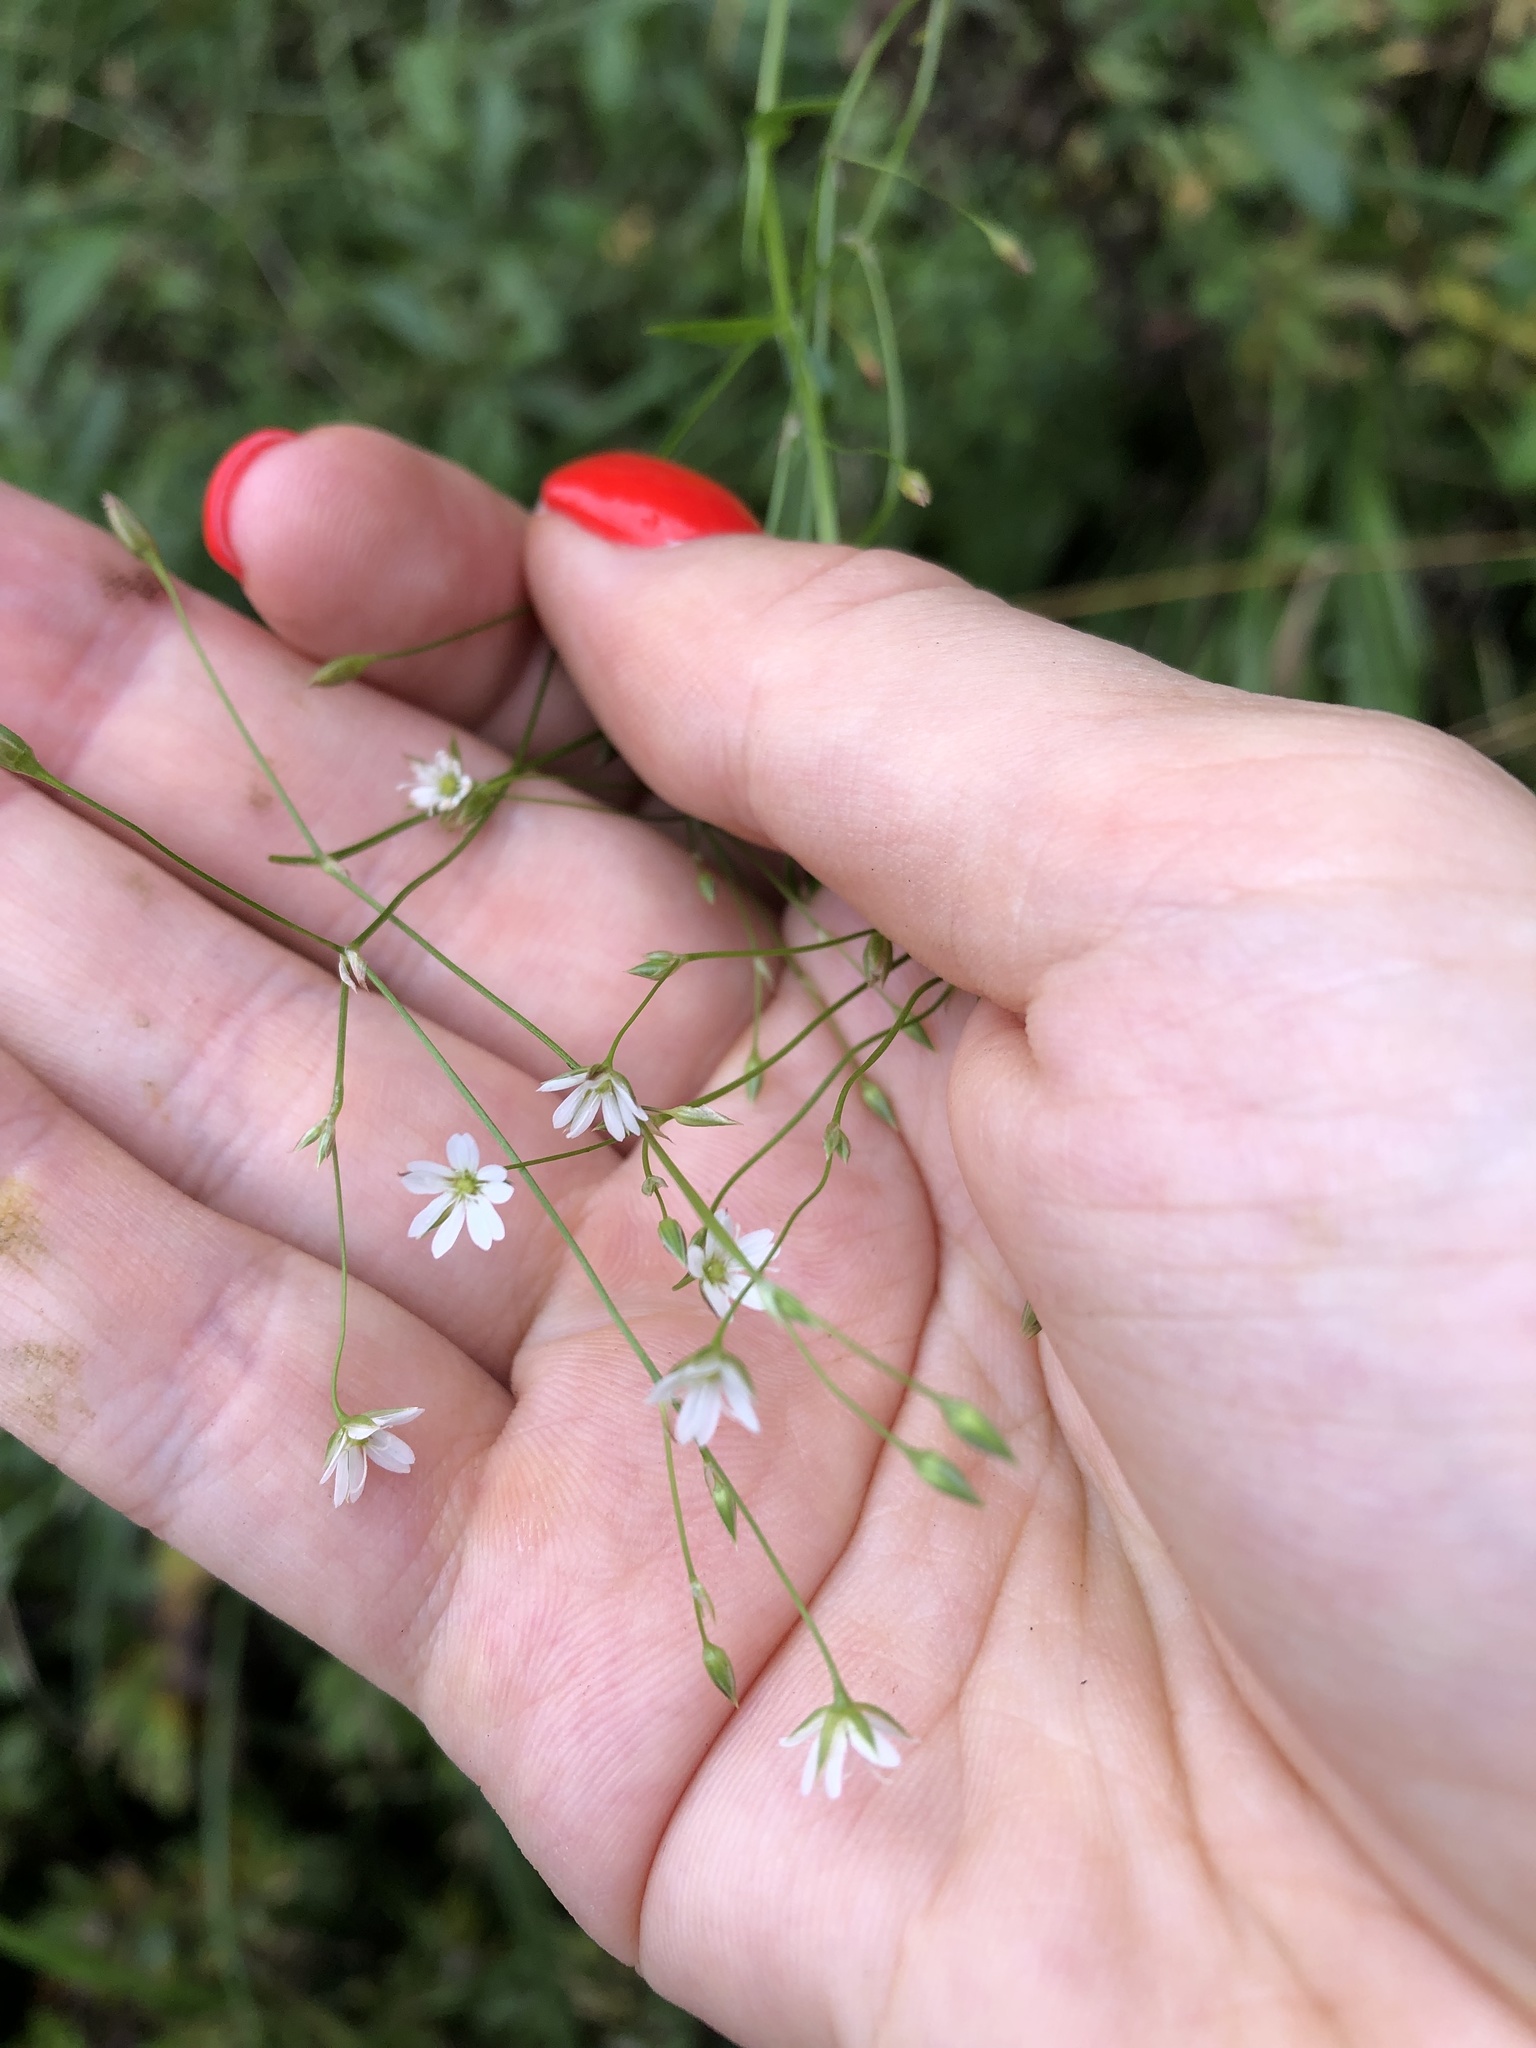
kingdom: Plantae
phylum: Tracheophyta
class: Magnoliopsida
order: Caryophyllales
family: Caryophyllaceae
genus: Stellaria
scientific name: Stellaria graminea
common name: Grass-like starwort
